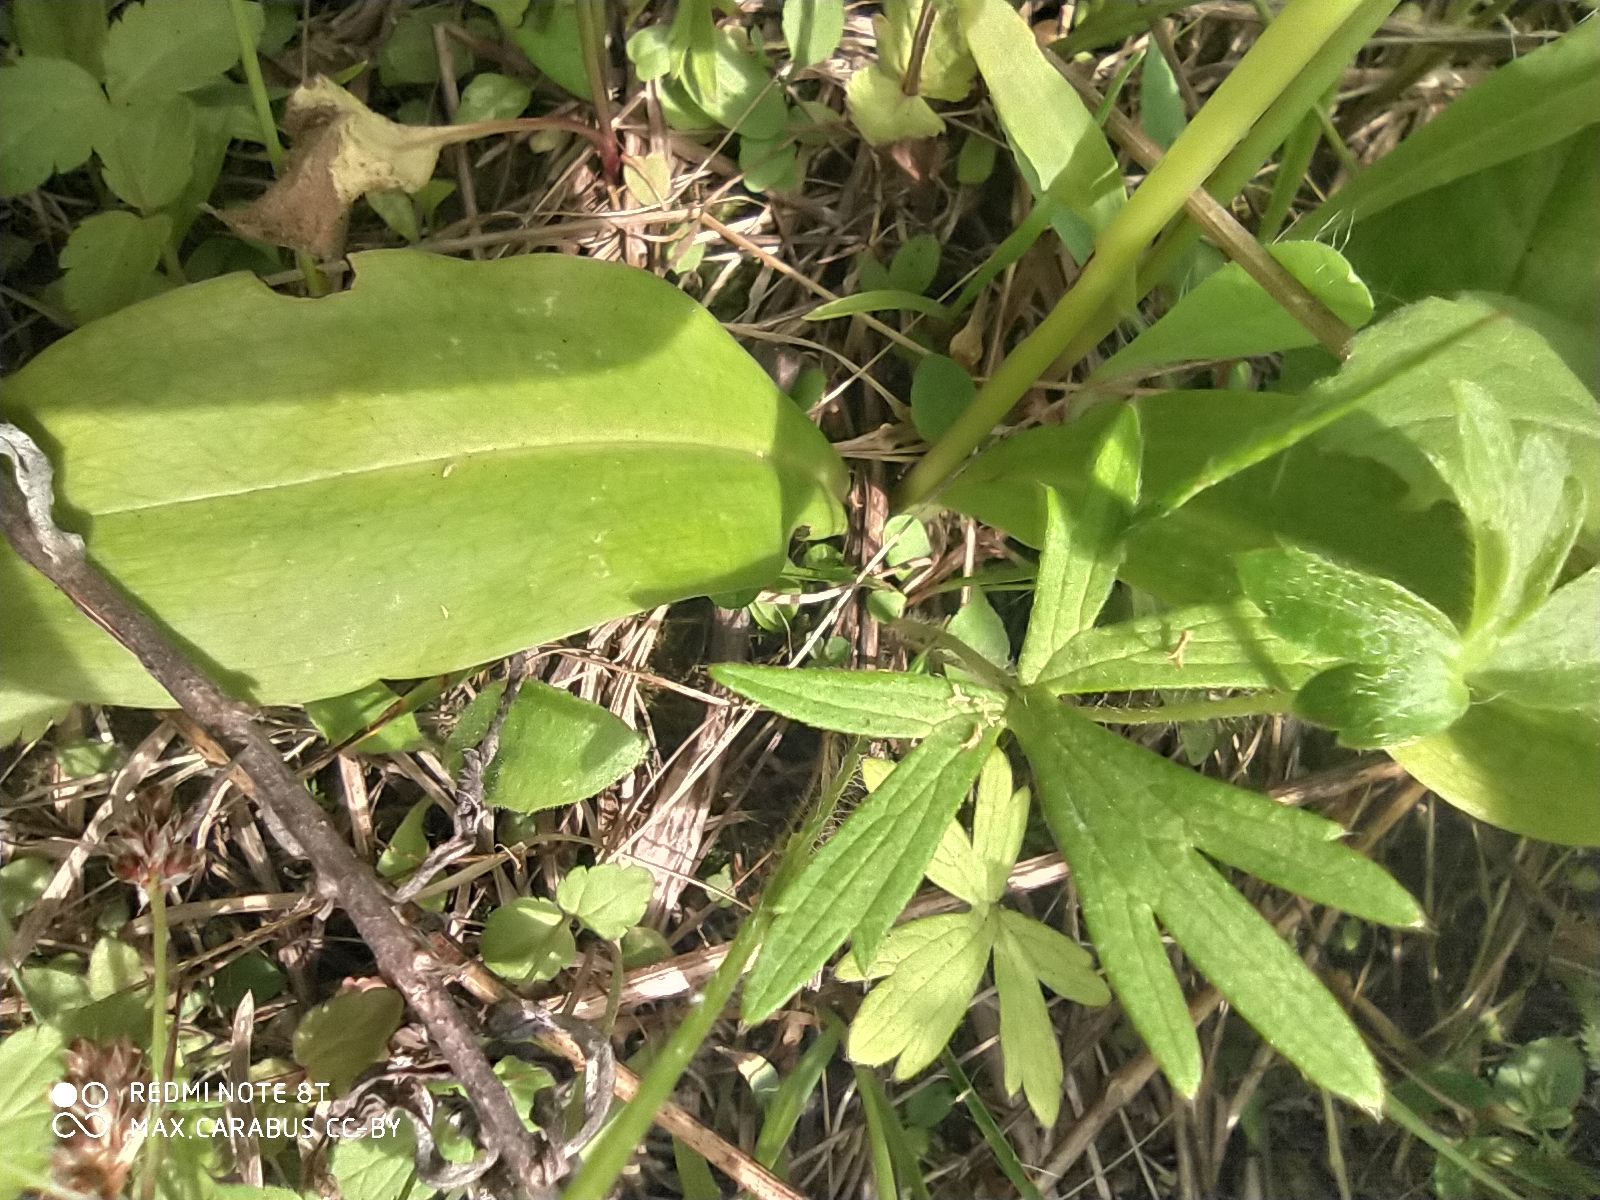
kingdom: Plantae
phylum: Tracheophyta
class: Liliopsida
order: Asparagales
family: Orchidaceae
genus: Platanthera
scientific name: Platanthera bifolia
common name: Lesser butterfly-orchid
